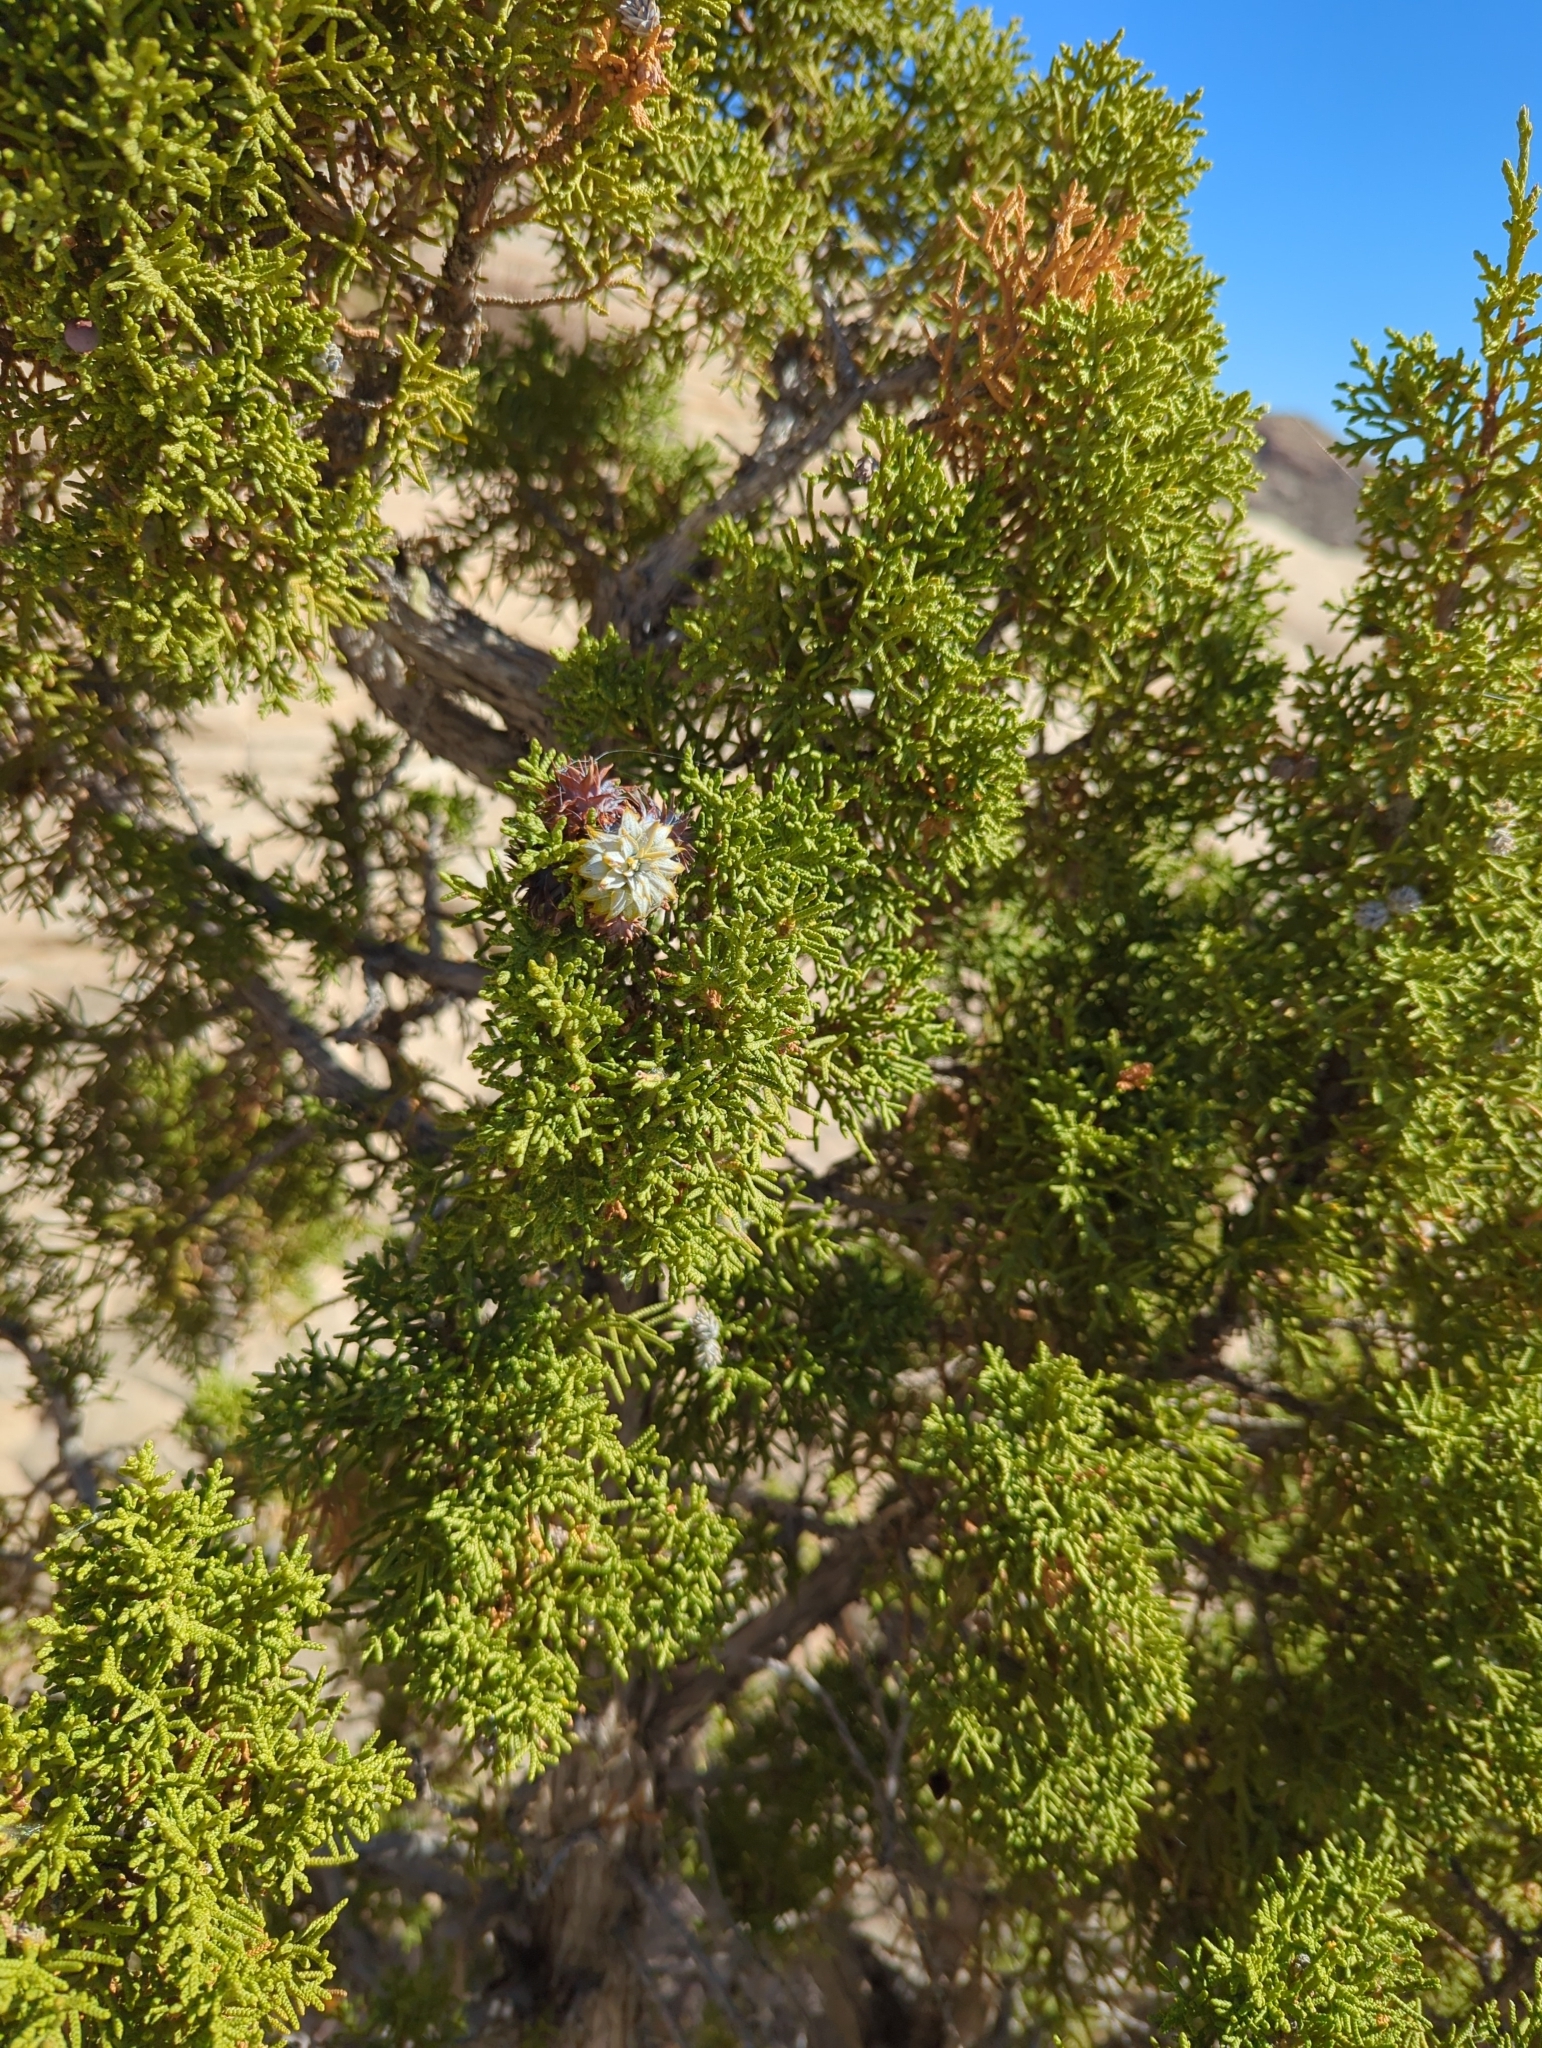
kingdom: Plantae
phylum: Tracheophyta
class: Pinopsida
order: Pinales
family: Cupressaceae
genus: Juniperus
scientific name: Juniperus osteosperma
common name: Utah juniper
